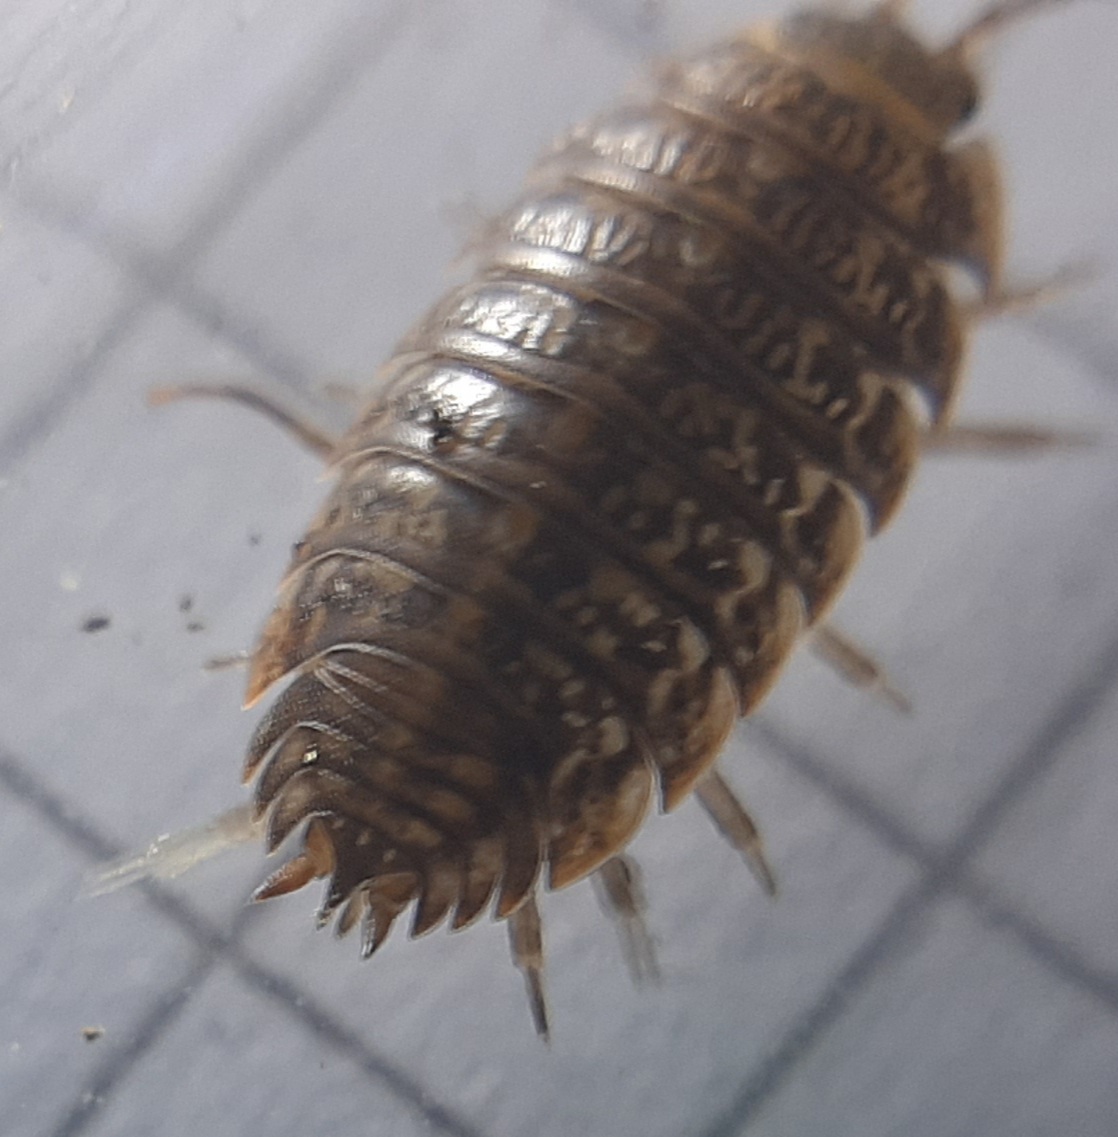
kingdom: Animalia
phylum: Arthropoda
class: Malacostraca
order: Isopoda
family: Trachelipodidae
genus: Trachelipus
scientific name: Trachelipus razzautii
